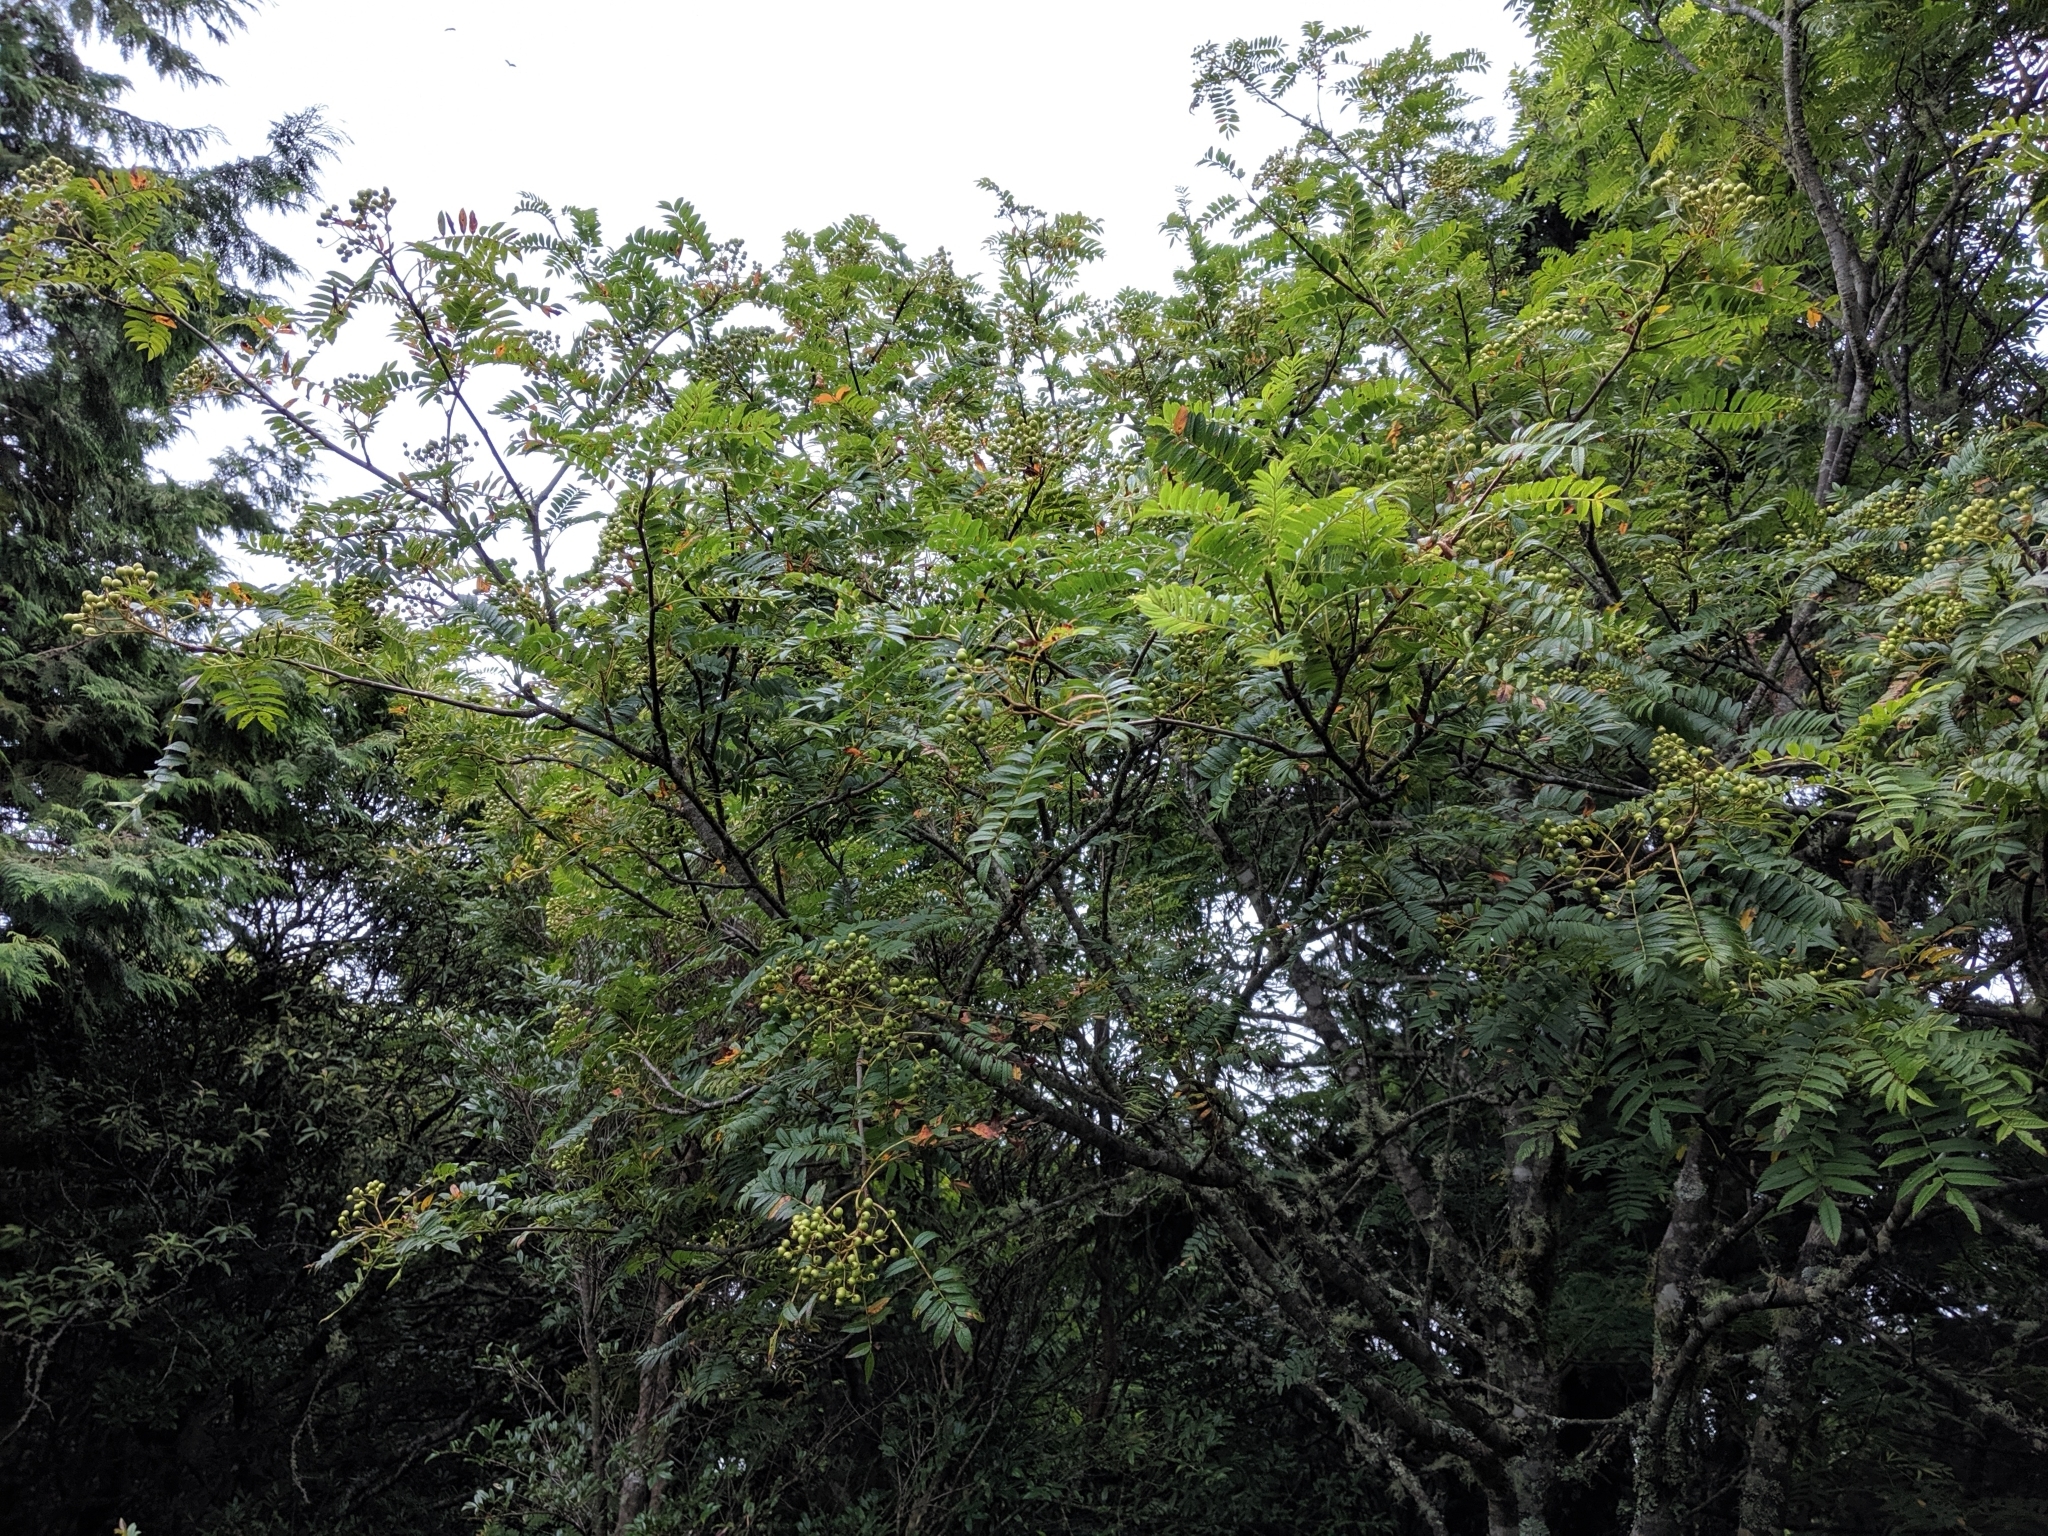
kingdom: Plantae
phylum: Tracheophyta
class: Magnoliopsida
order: Rosales
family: Rosaceae
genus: Sorbus
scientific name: Sorbus randaiensis
